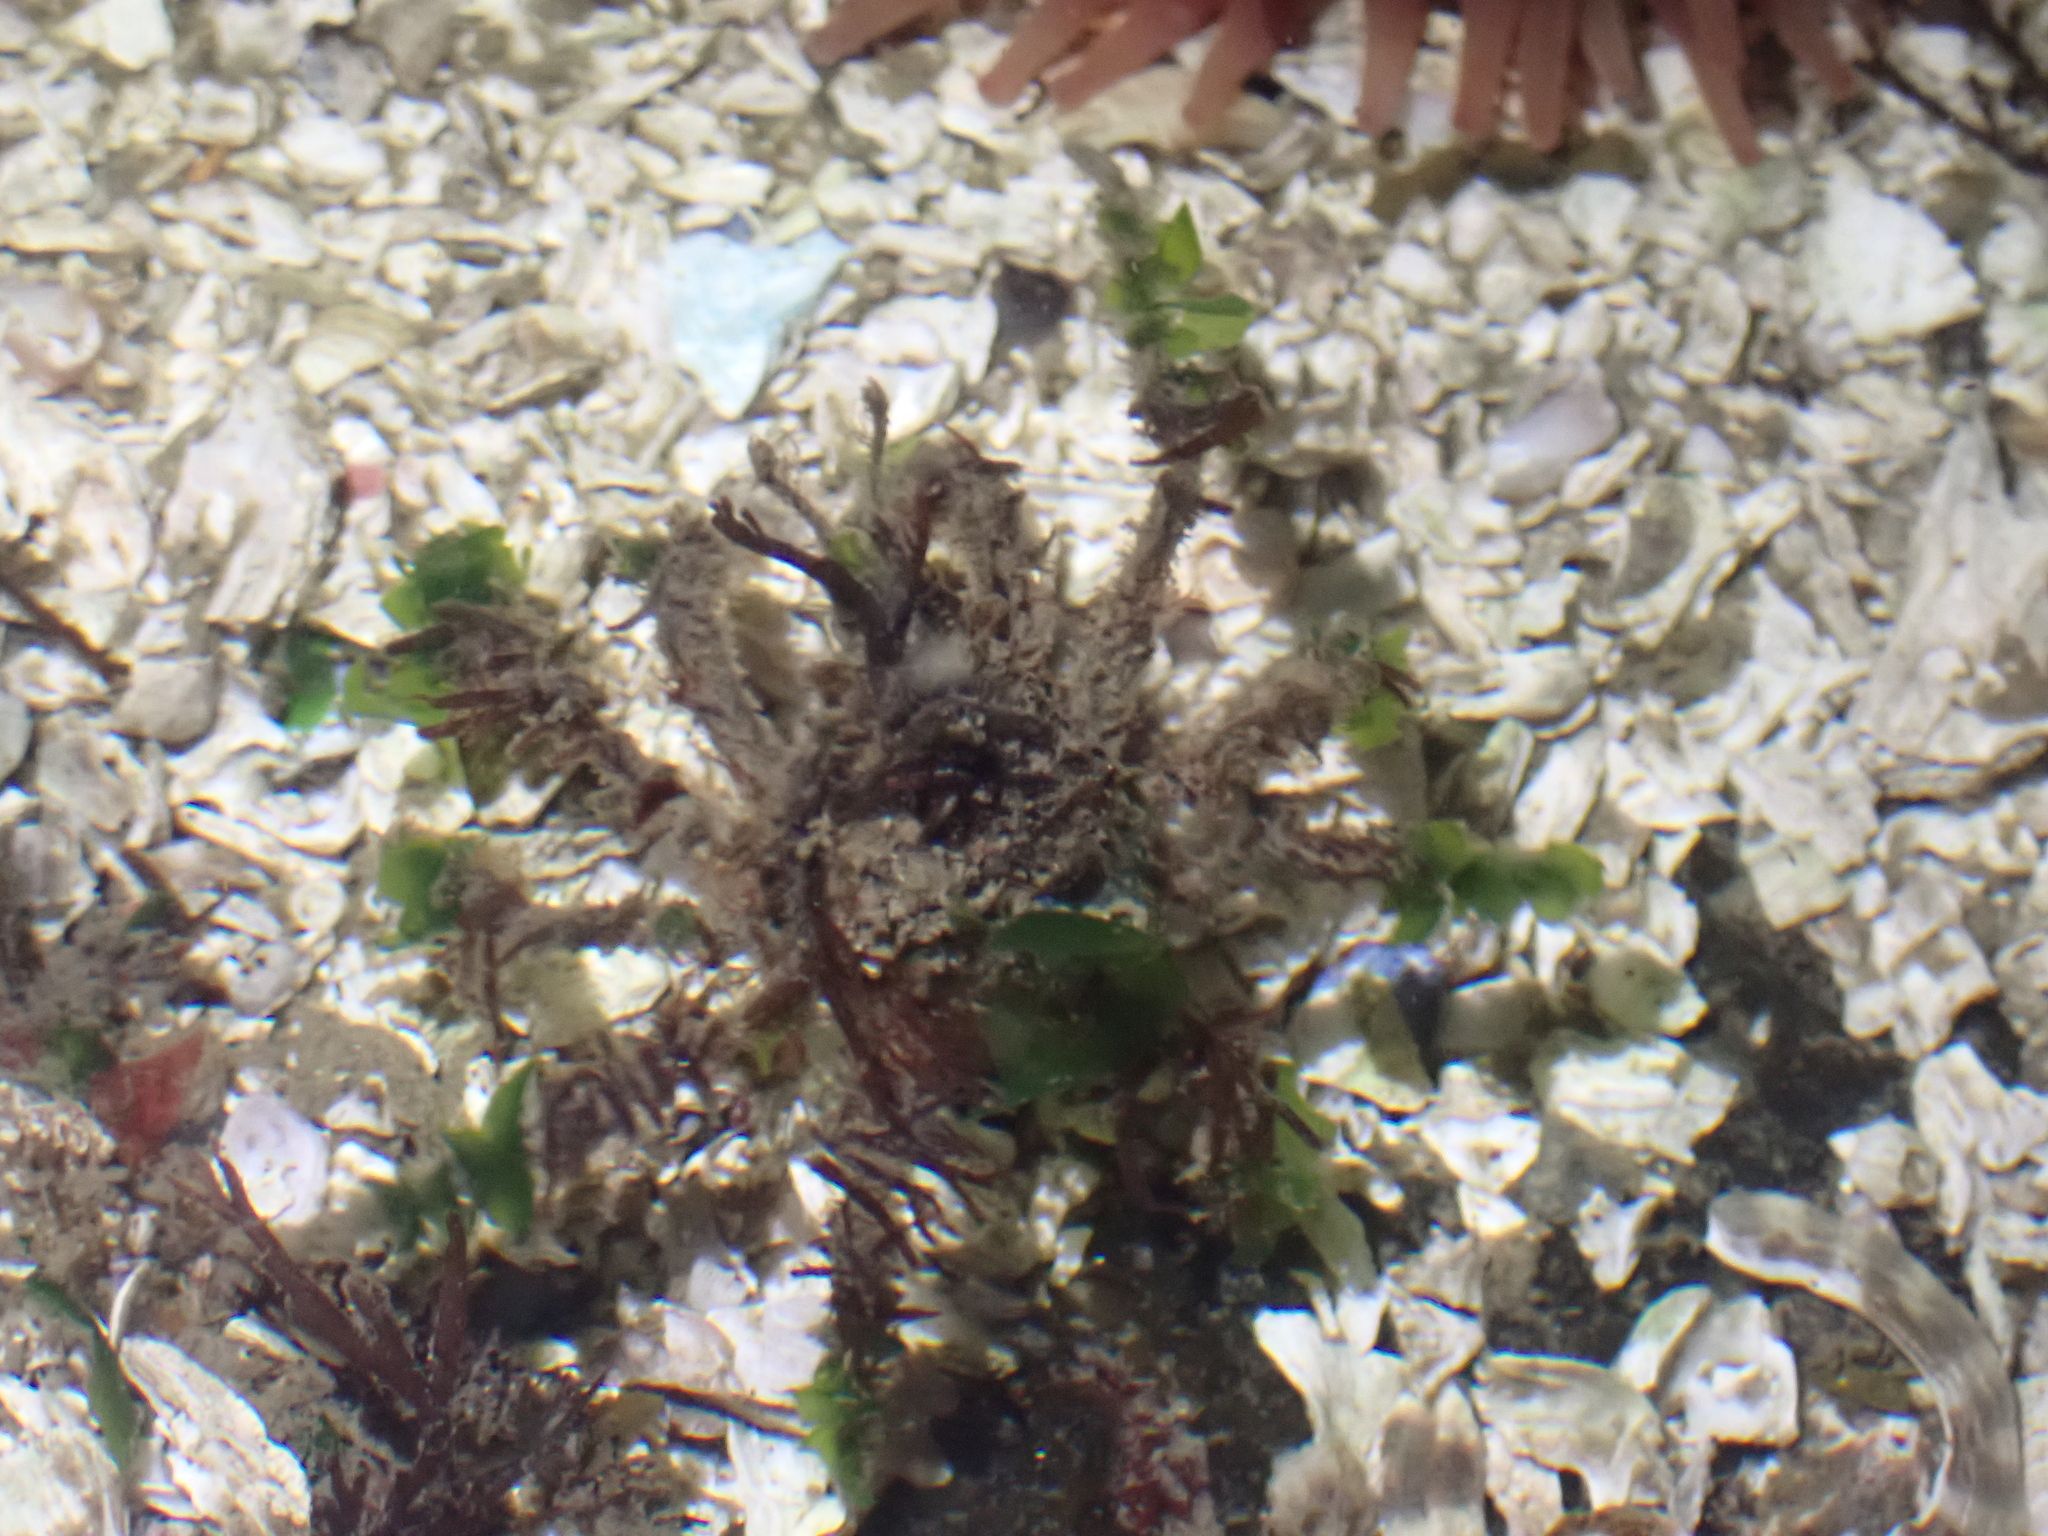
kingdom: Animalia
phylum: Arthropoda
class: Malacostraca
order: Decapoda
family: Oregoniidae
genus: Oregonia
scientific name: Oregonia gracilis
